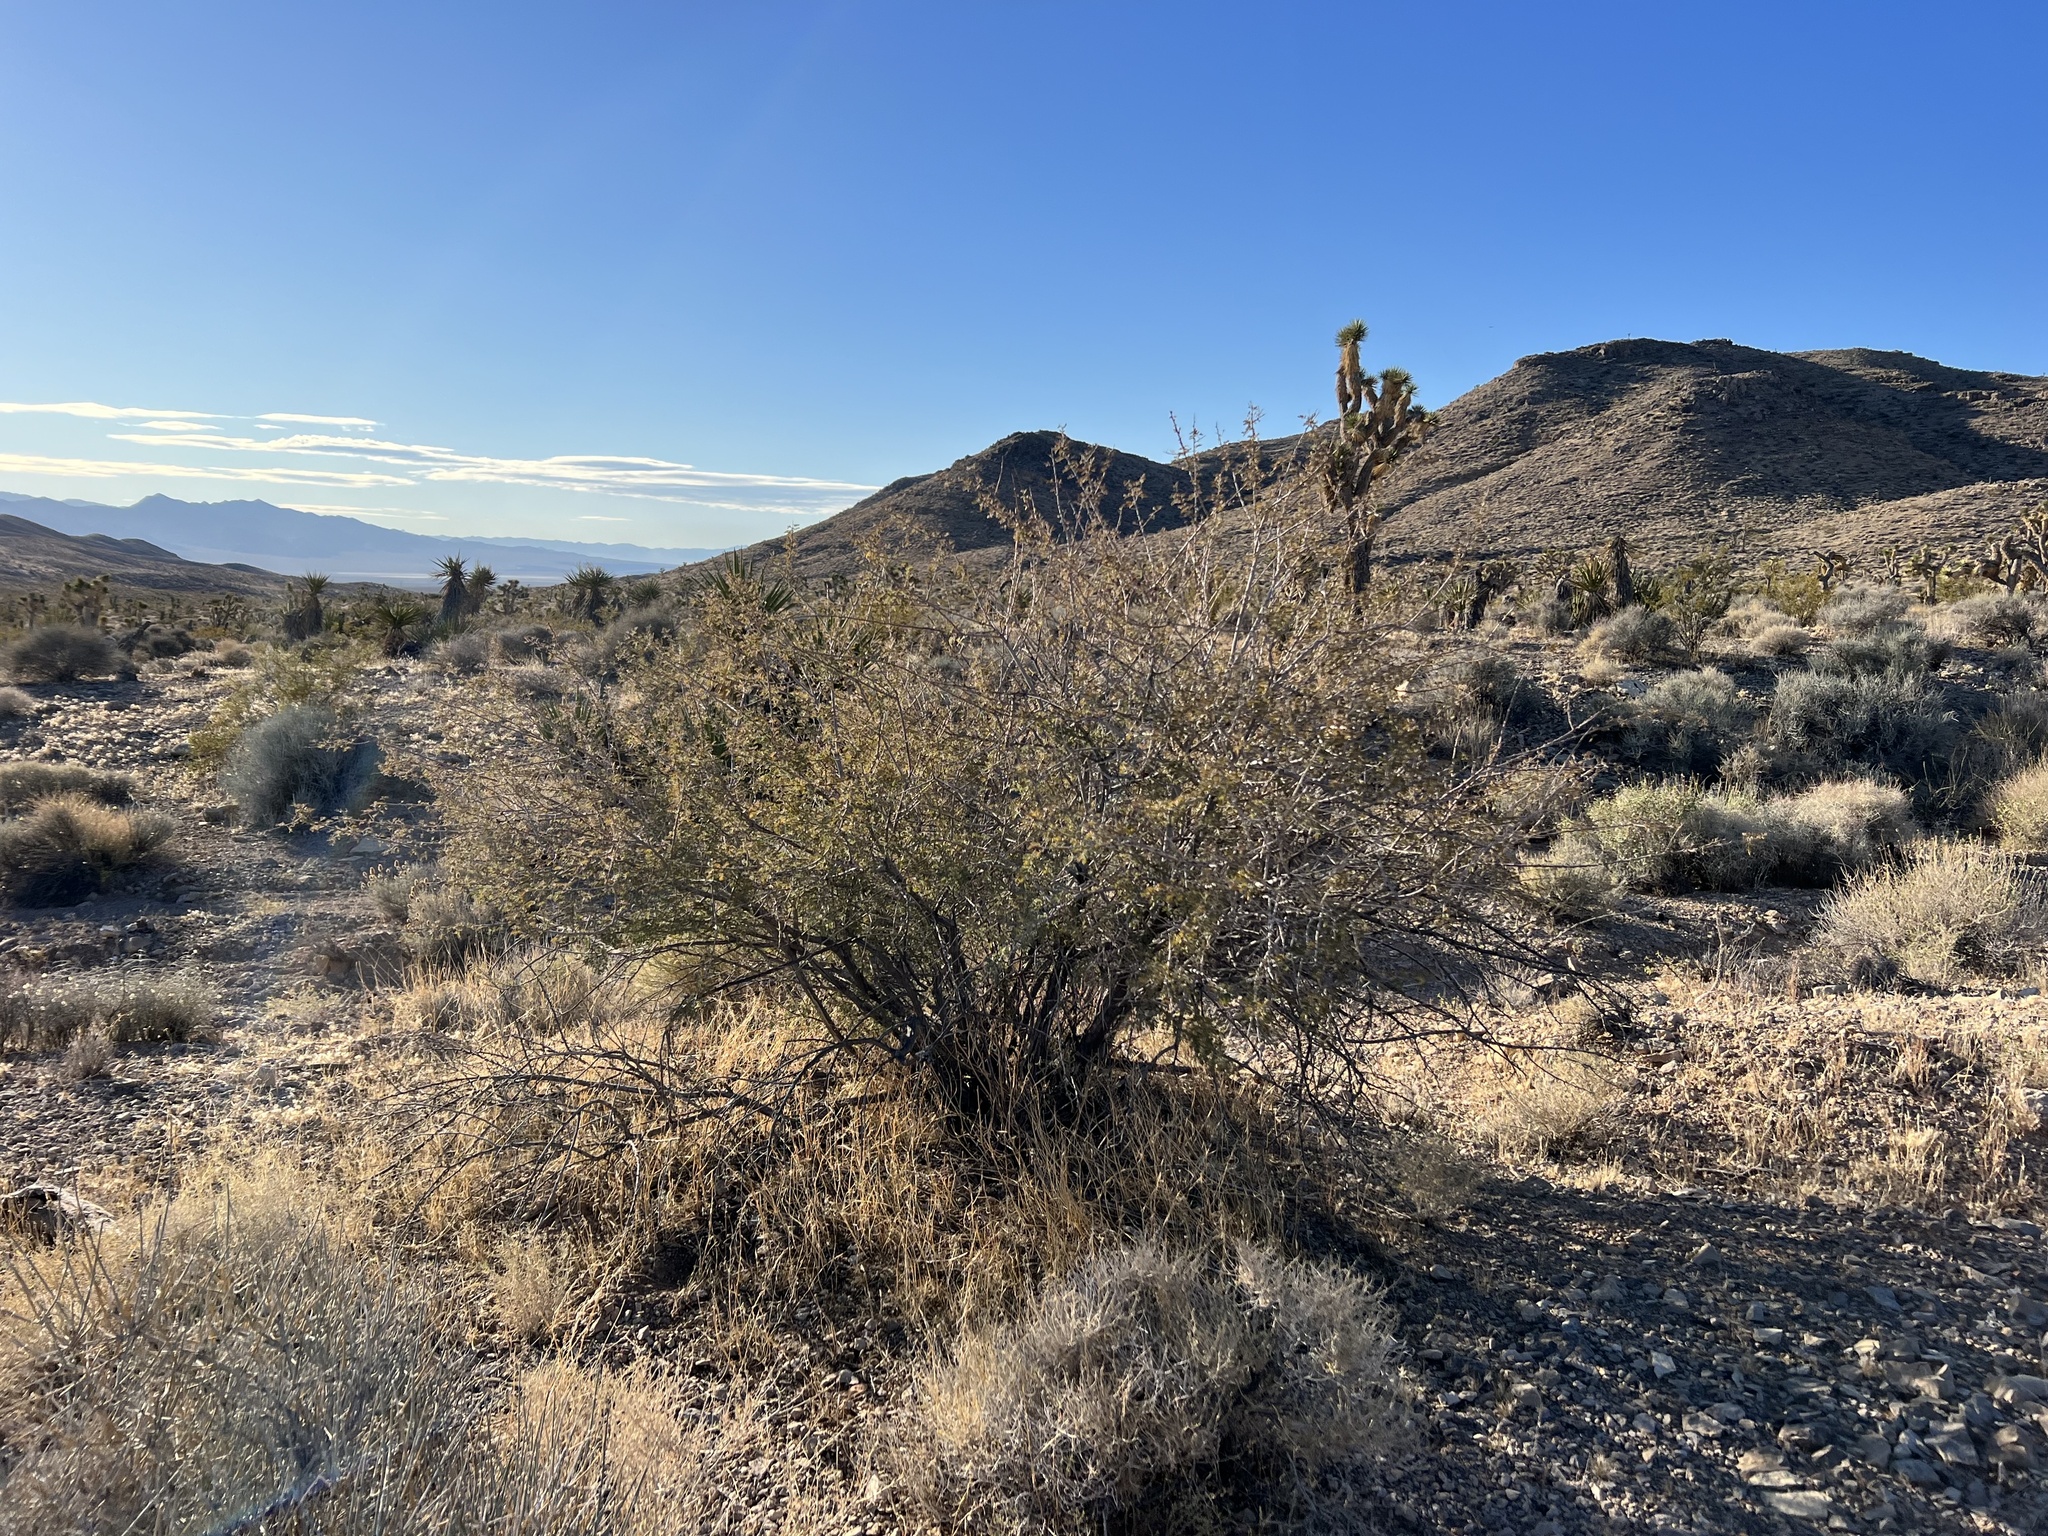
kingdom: Animalia
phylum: Arthropoda
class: Insecta
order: Hymenoptera
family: Tanaostigmatidae
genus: Tanaostigmodes
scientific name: Tanaostigmodes howardii
